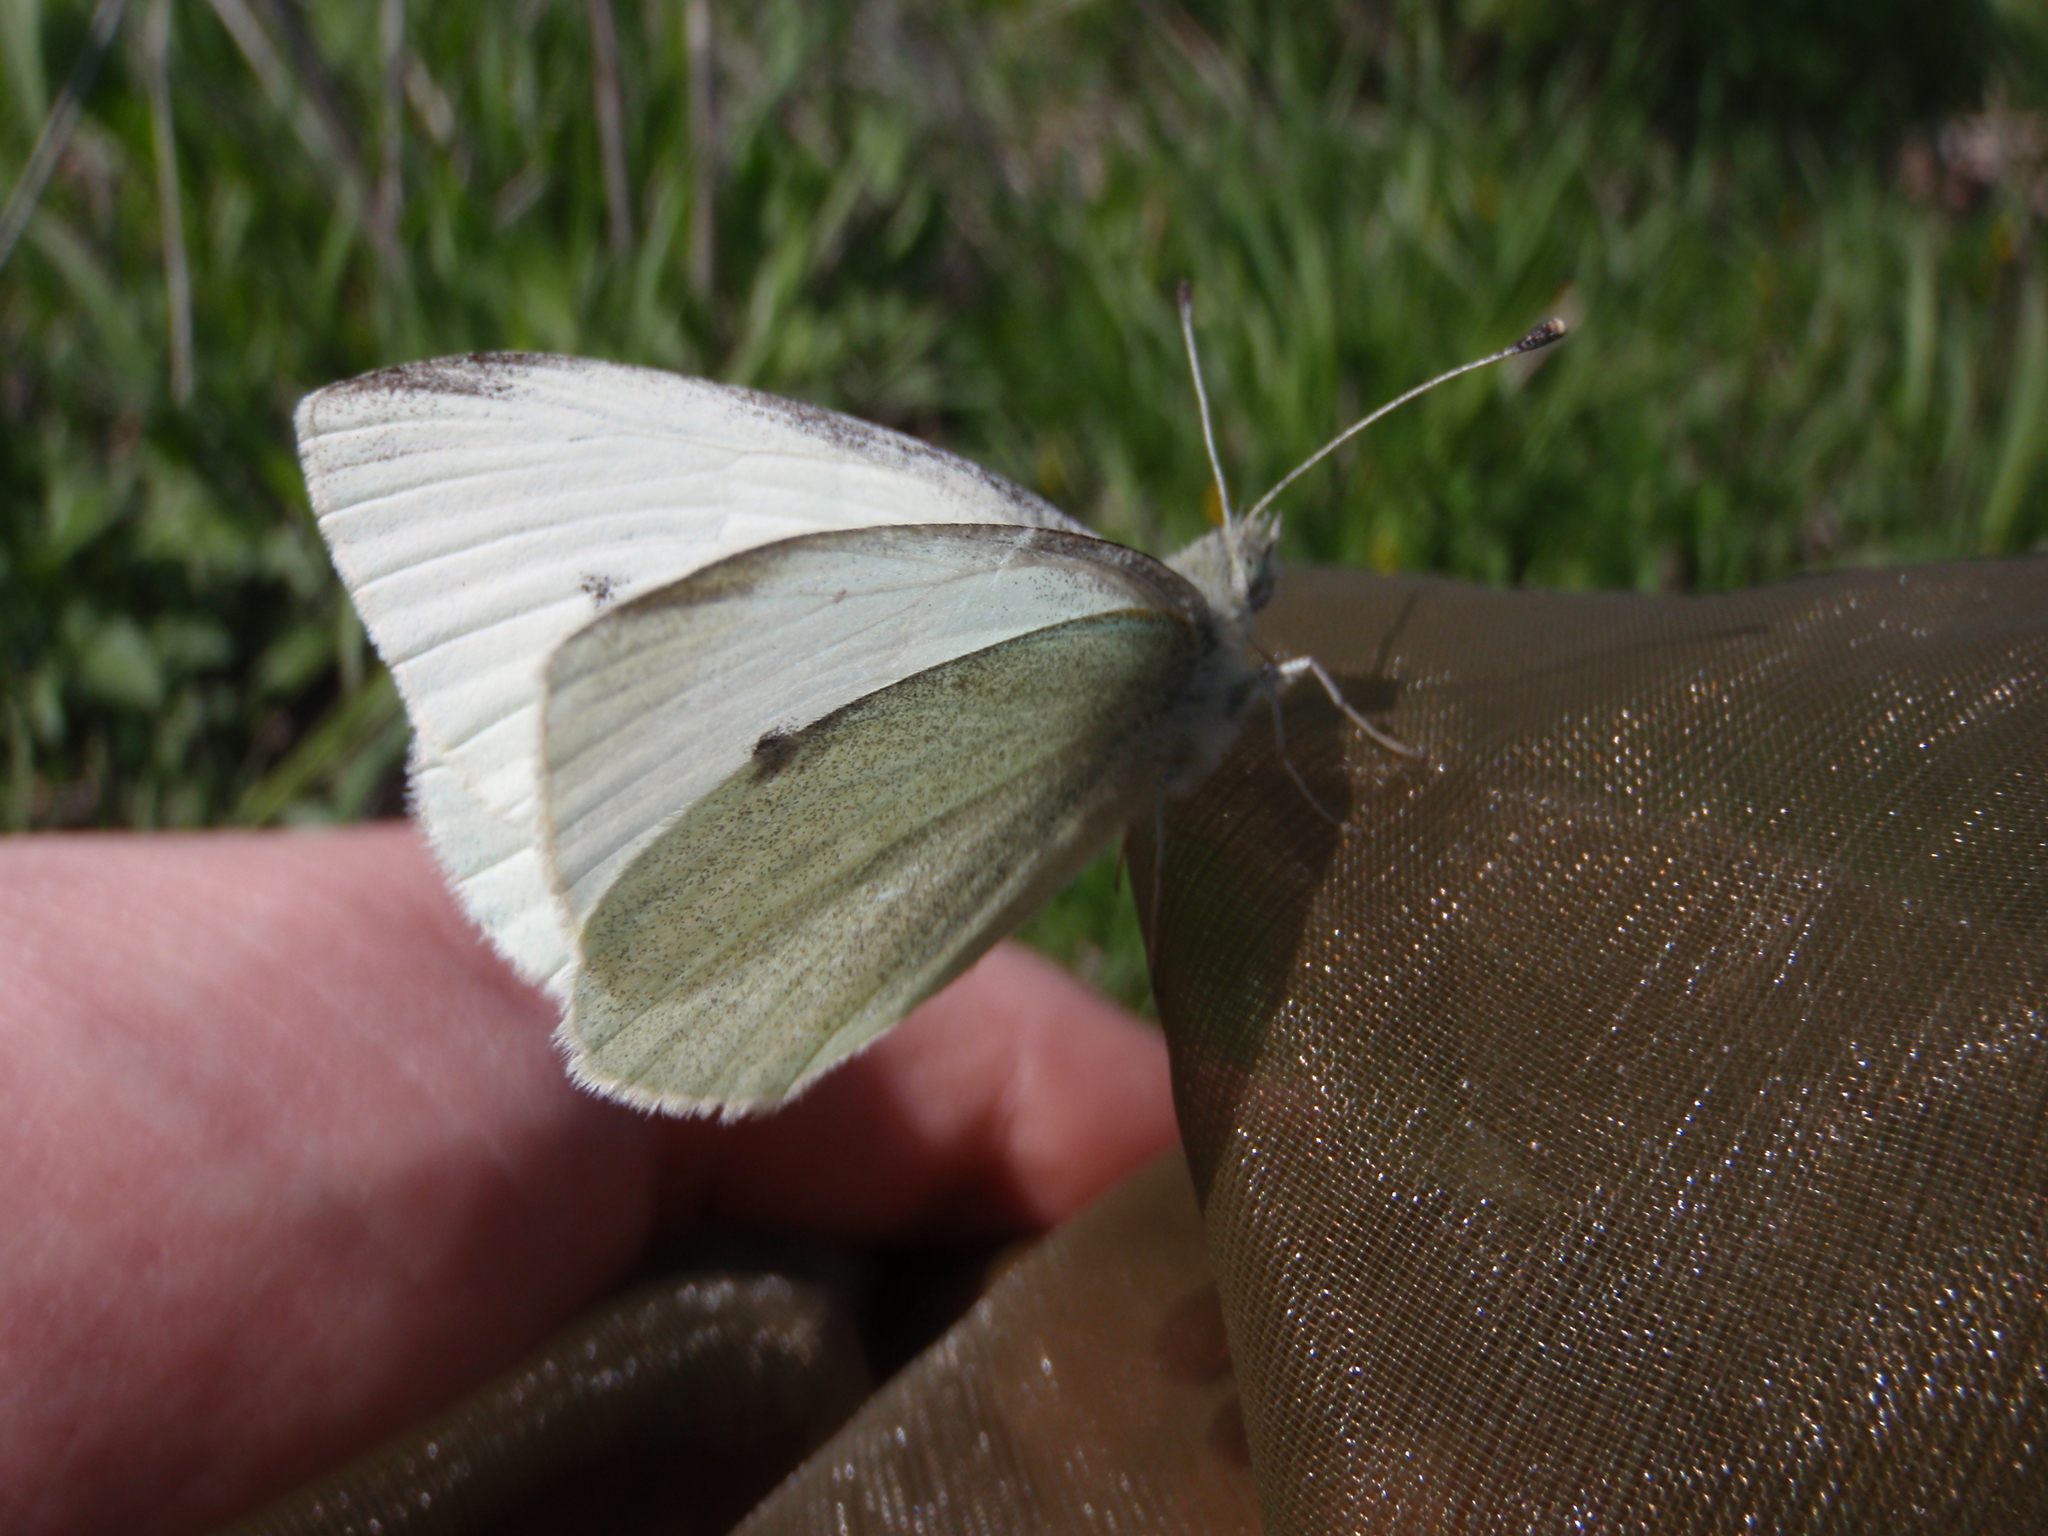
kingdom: Animalia
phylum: Arthropoda
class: Insecta
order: Lepidoptera
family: Pieridae
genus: Pieris
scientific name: Pieris rapae
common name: Small white
